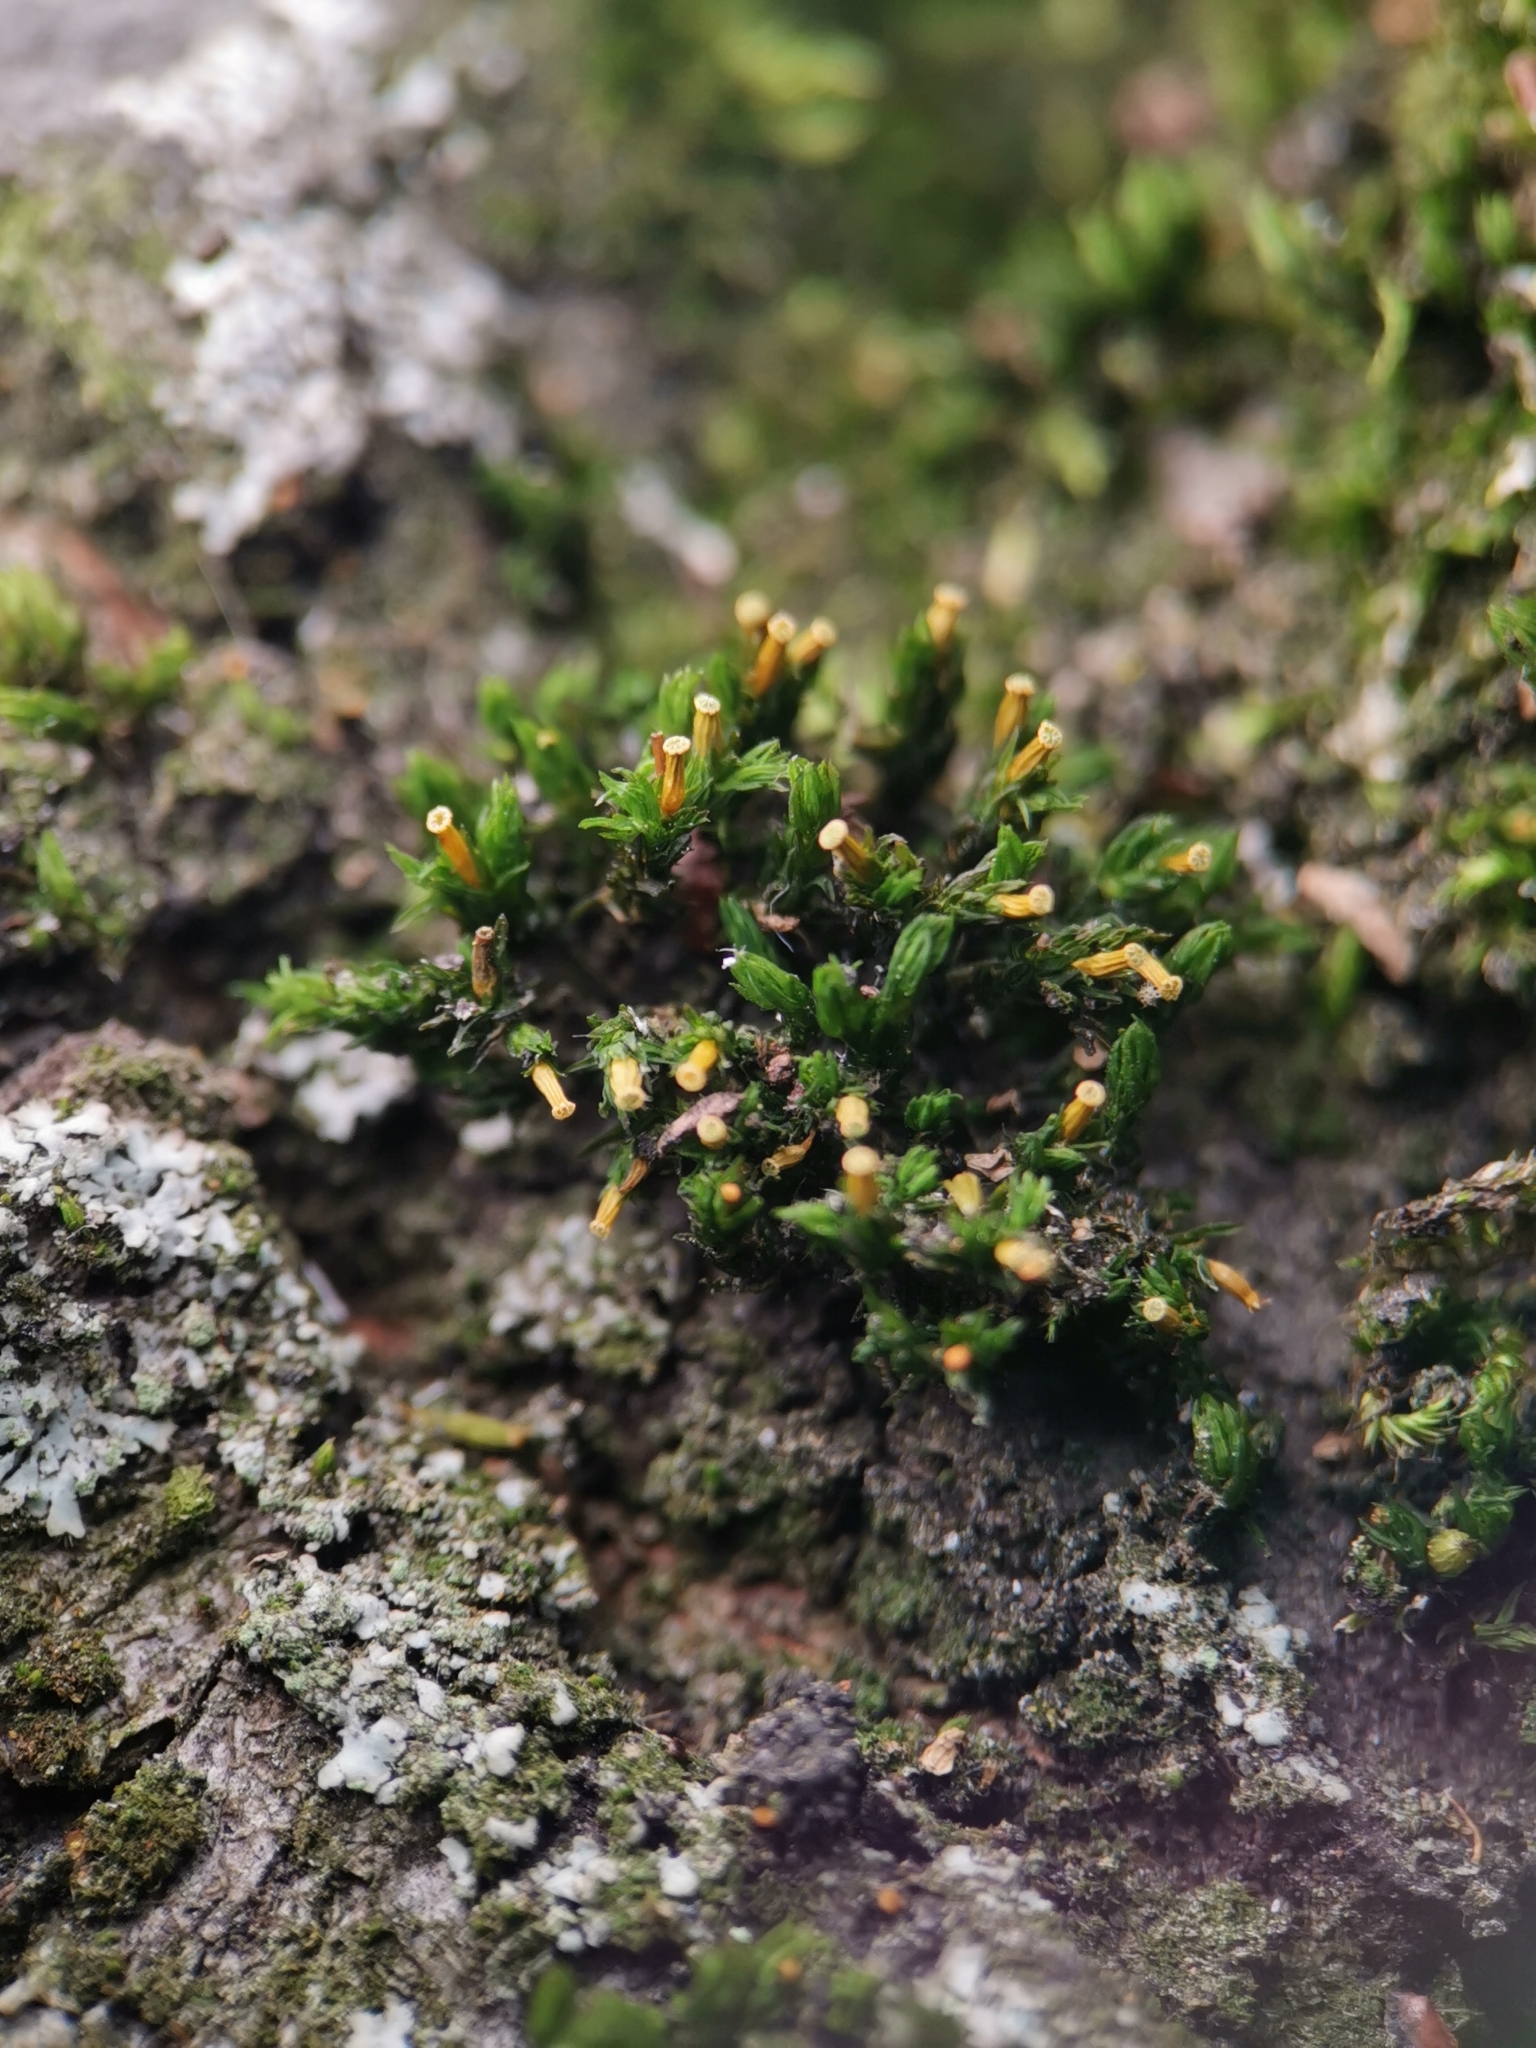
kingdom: Plantae
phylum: Bryophyta
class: Bryopsida
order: Orthotrichales
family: Orthotrichaceae
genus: Orthotrichum
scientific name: Orthotrichum diaphanum
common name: White-tipped bristle-moss
